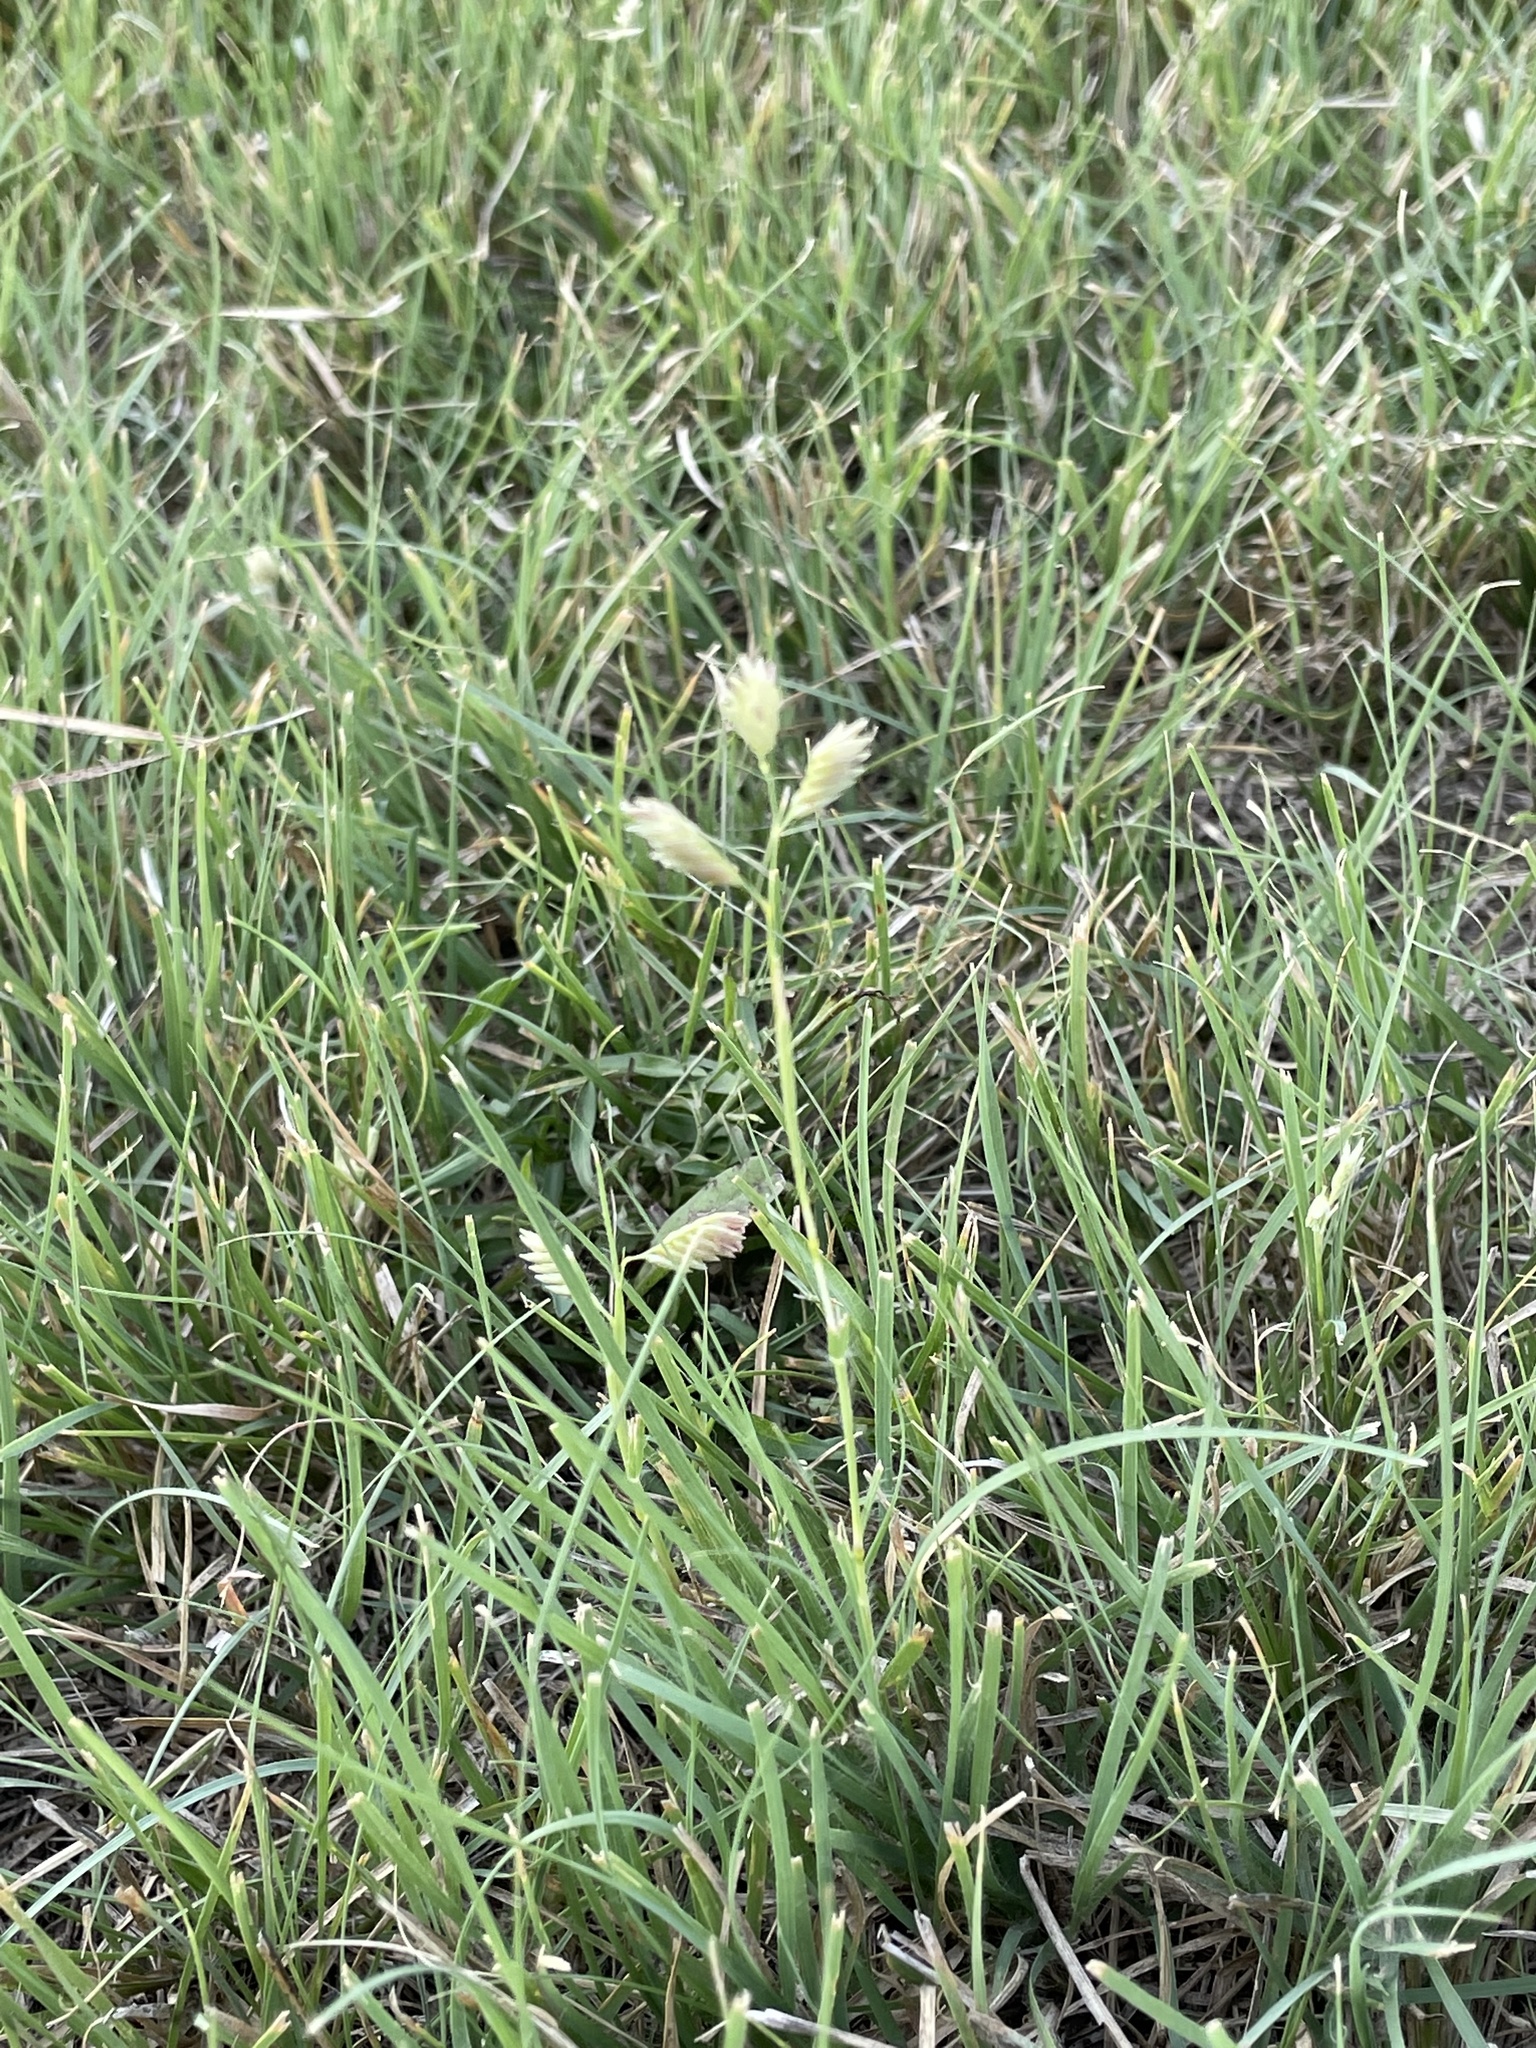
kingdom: Plantae
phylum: Tracheophyta
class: Liliopsida
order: Poales
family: Poaceae
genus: Bouteloua
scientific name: Bouteloua dactyloides
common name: Buffalo grass
